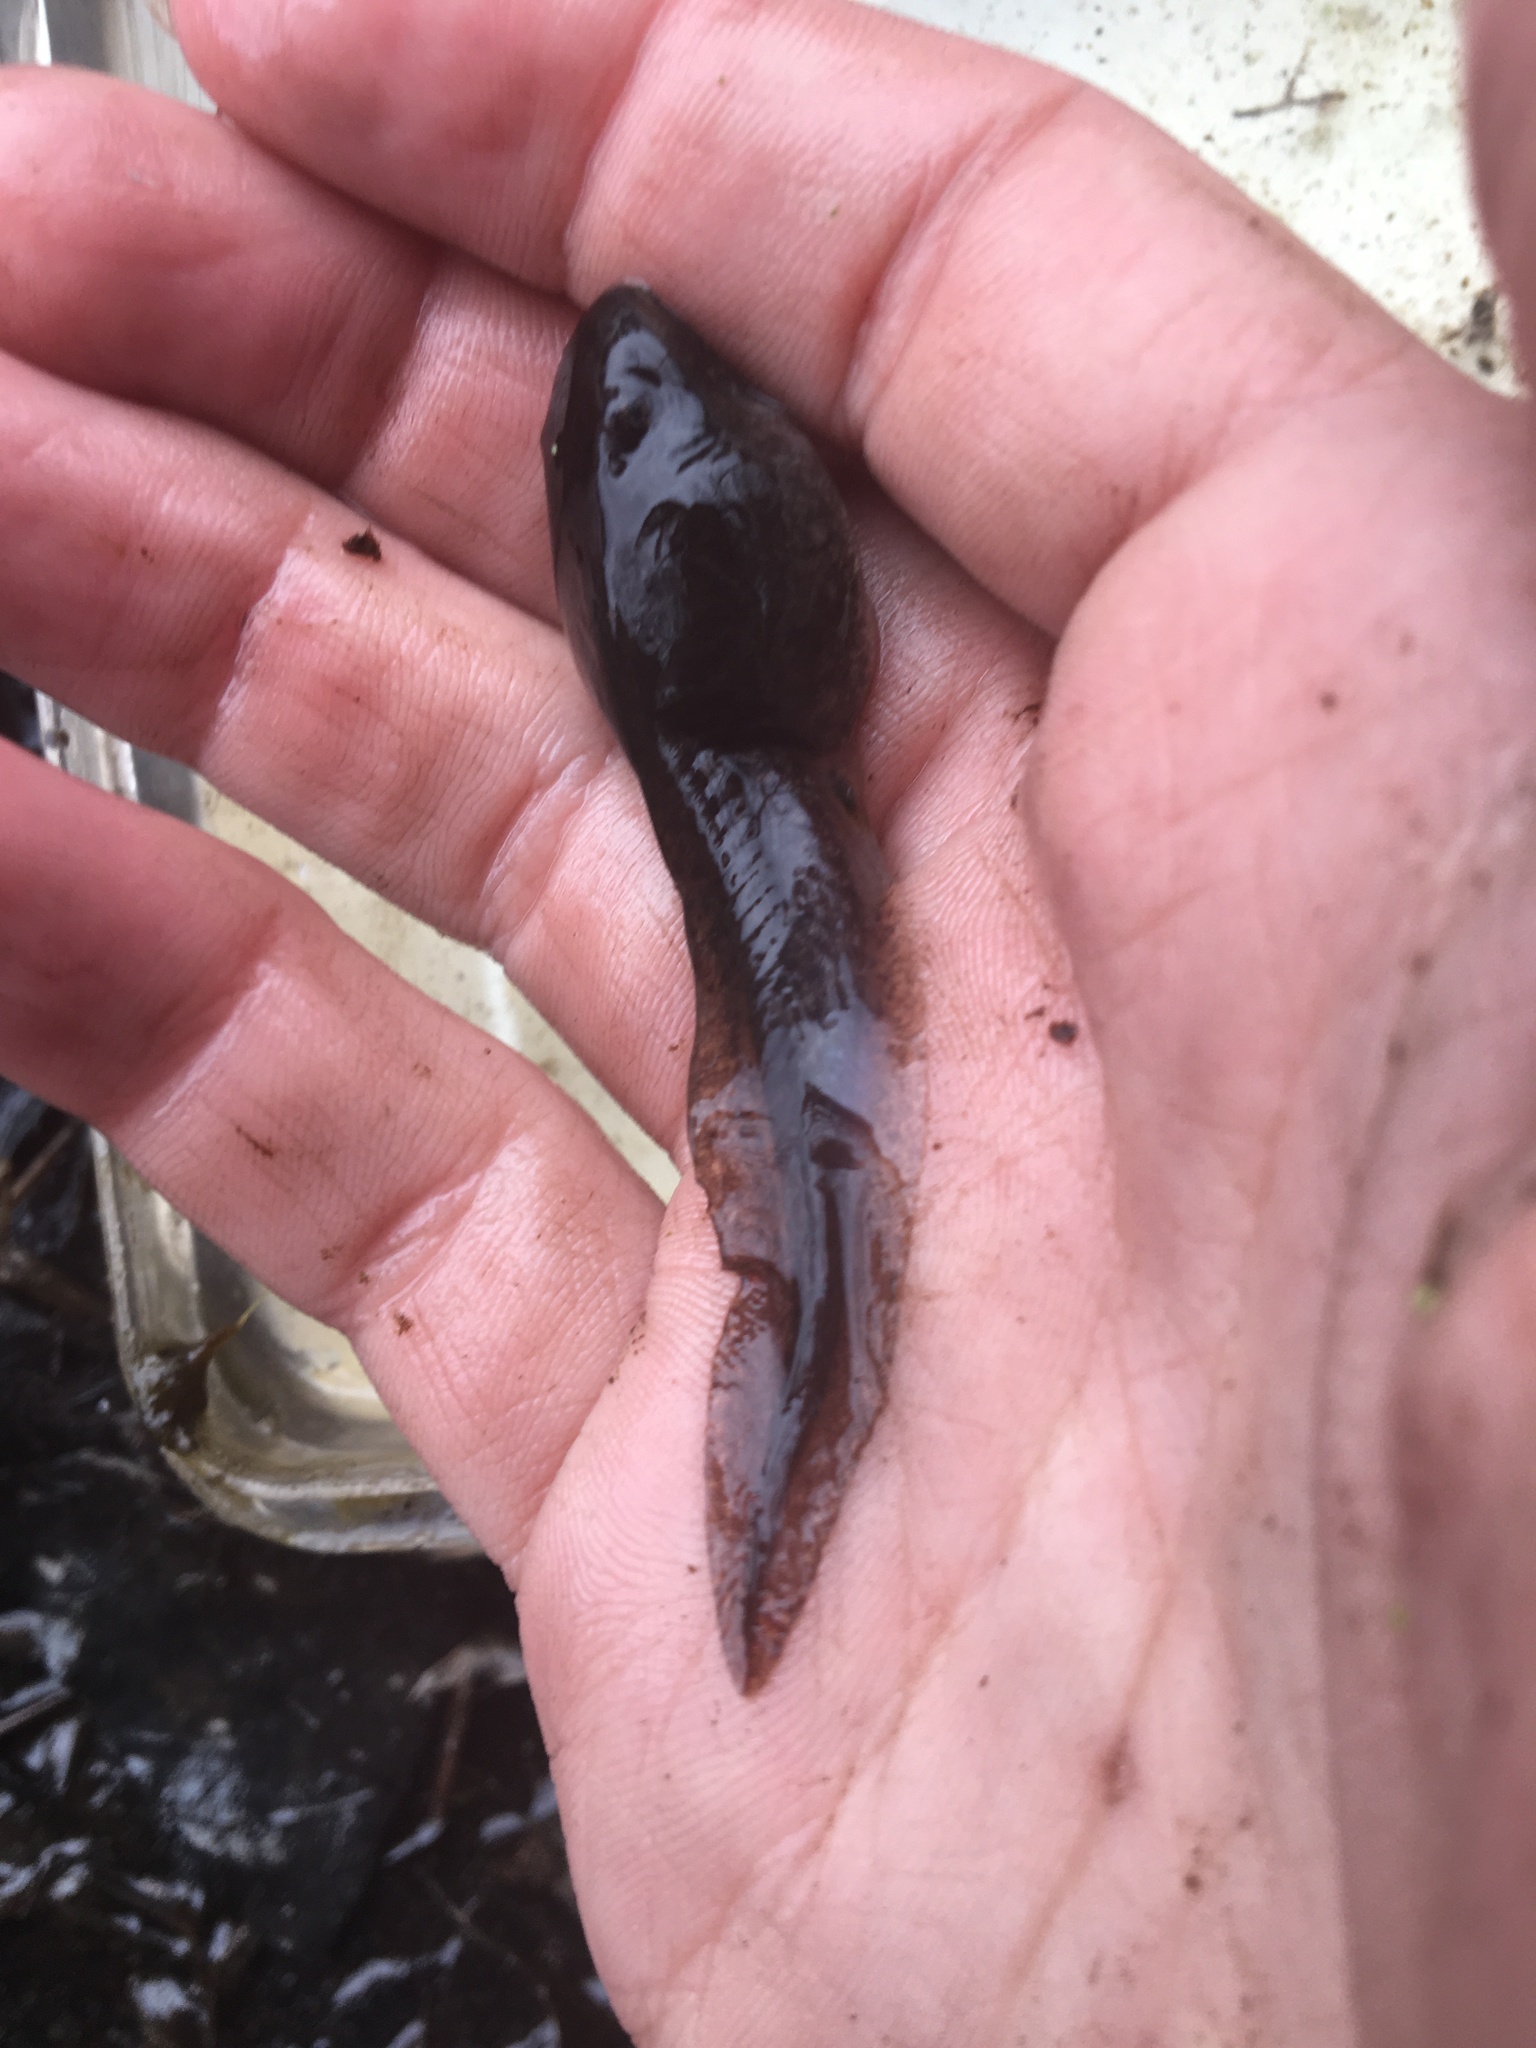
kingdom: Animalia
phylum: Chordata
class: Amphibia
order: Anura
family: Ranidae
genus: Lithobates
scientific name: Lithobates catesbeianus
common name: American bullfrog
